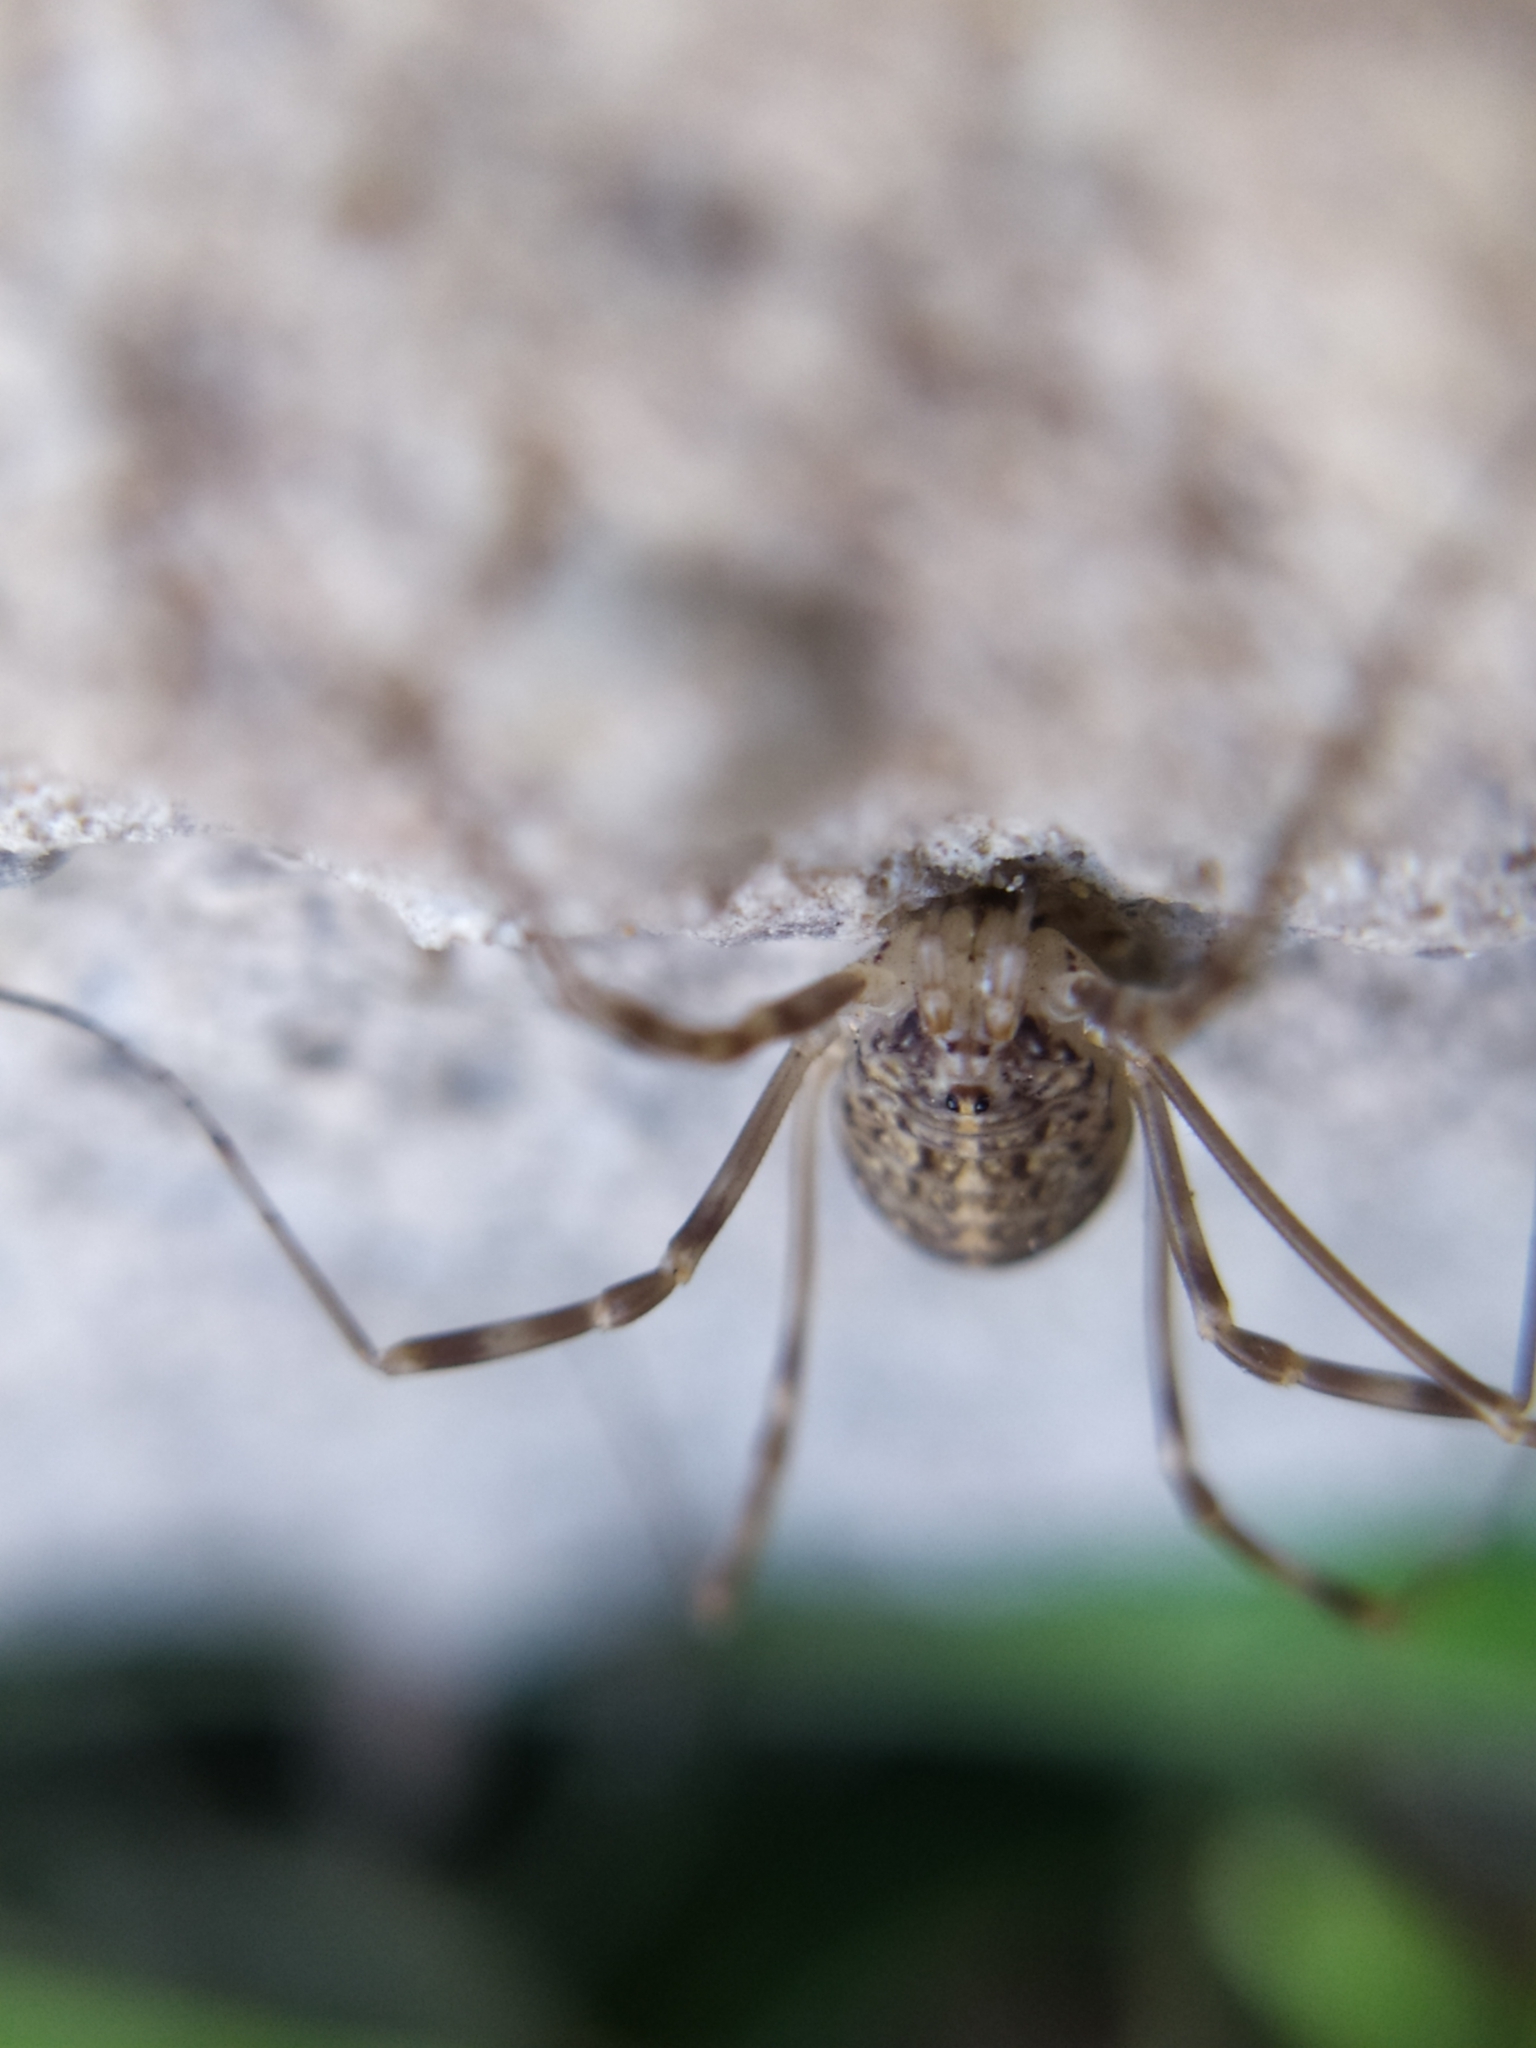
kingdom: Animalia
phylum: Arthropoda
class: Arachnida
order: Opiliones
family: Phalangiidae
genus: Opilio
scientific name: Opilio saxatilis
